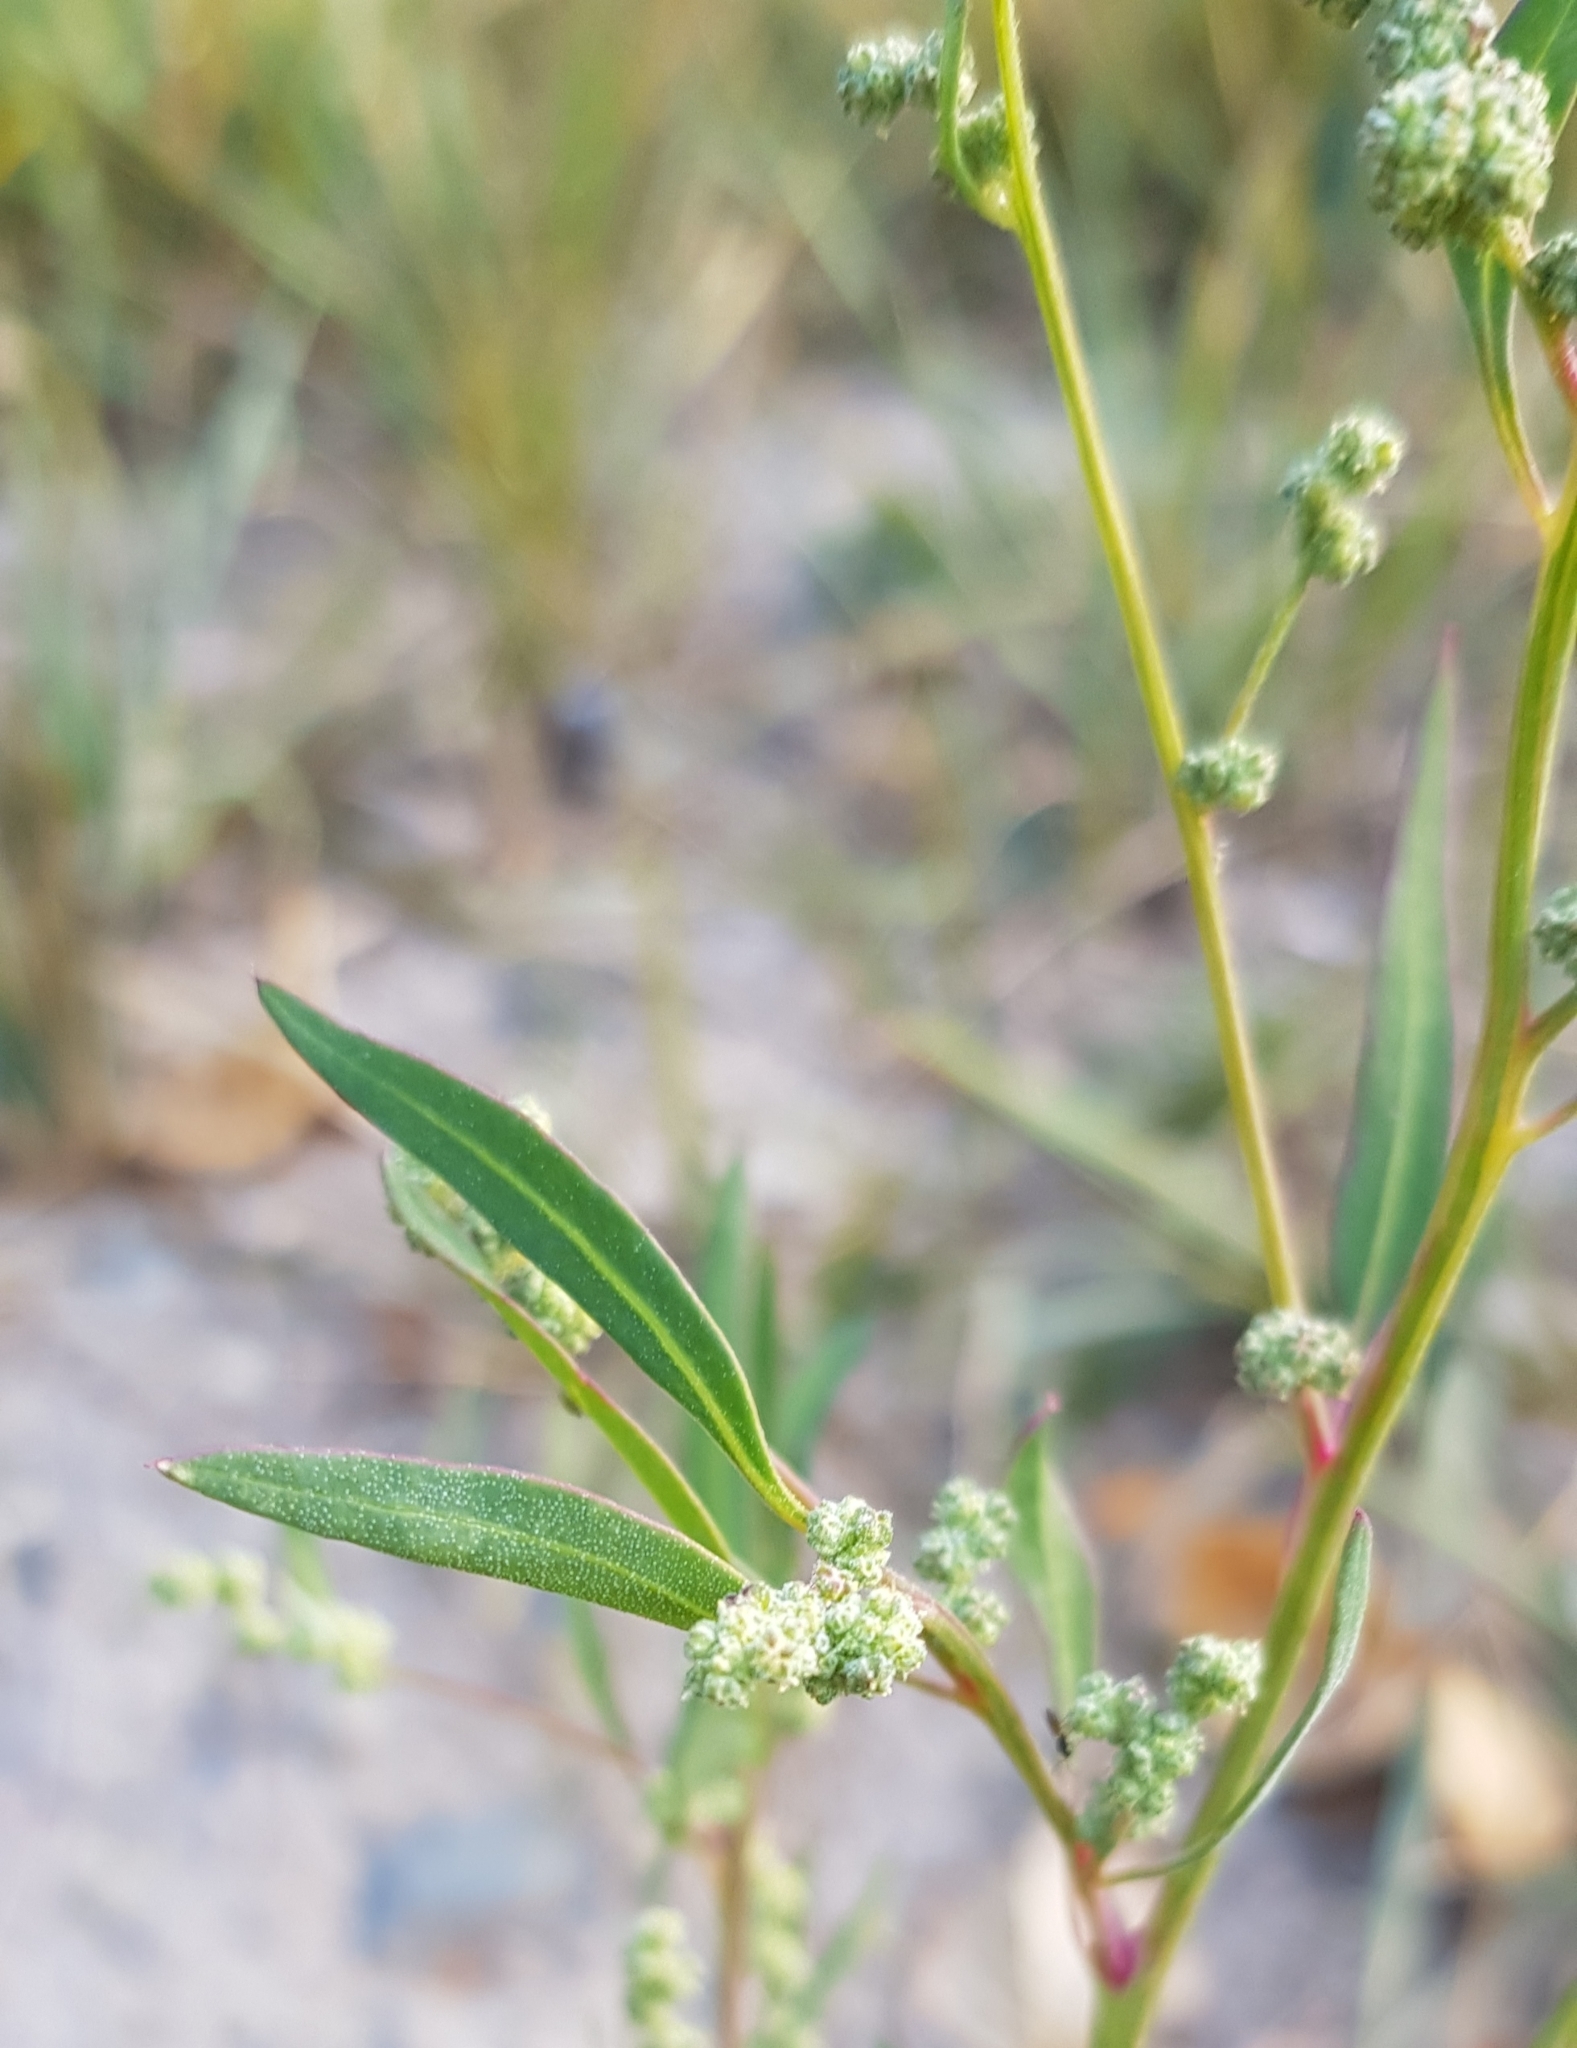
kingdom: Plantae
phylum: Tracheophyta
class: Magnoliopsida
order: Caryophyllales
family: Amaranthaceae
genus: Chenopodium
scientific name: Chenopodium album
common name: Fat-hen
